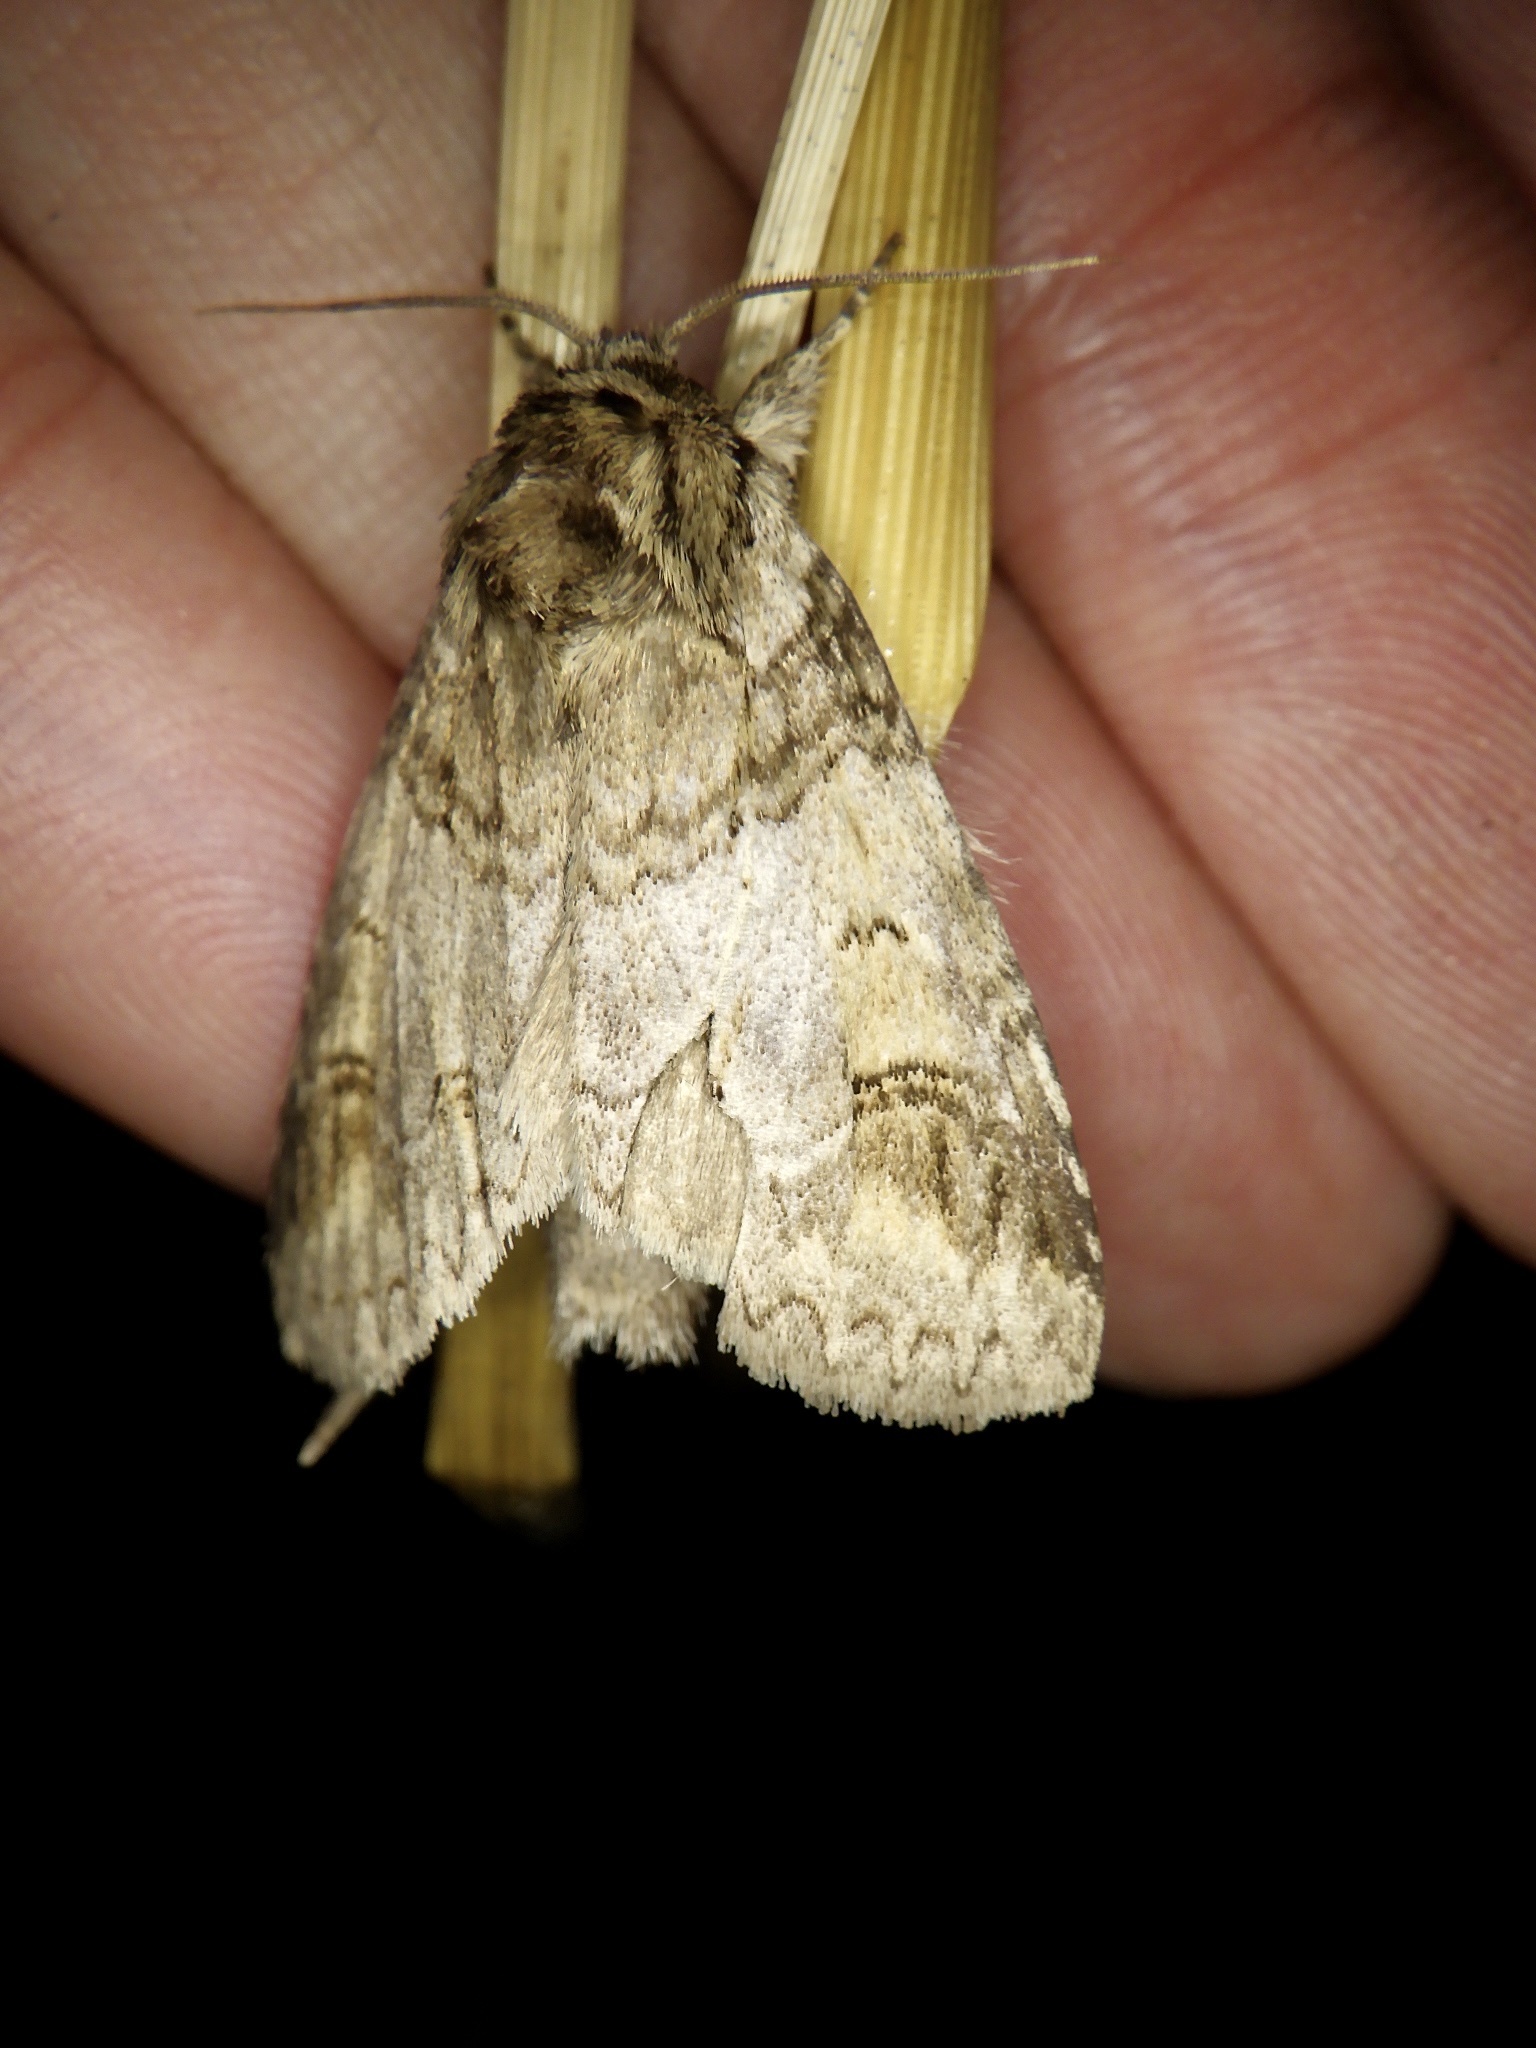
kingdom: Animalia
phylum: Arthropoda
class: Insecta
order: Lepidoptera
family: Notodontidae
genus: Neodrymonia
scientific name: Neodrymonia delia
